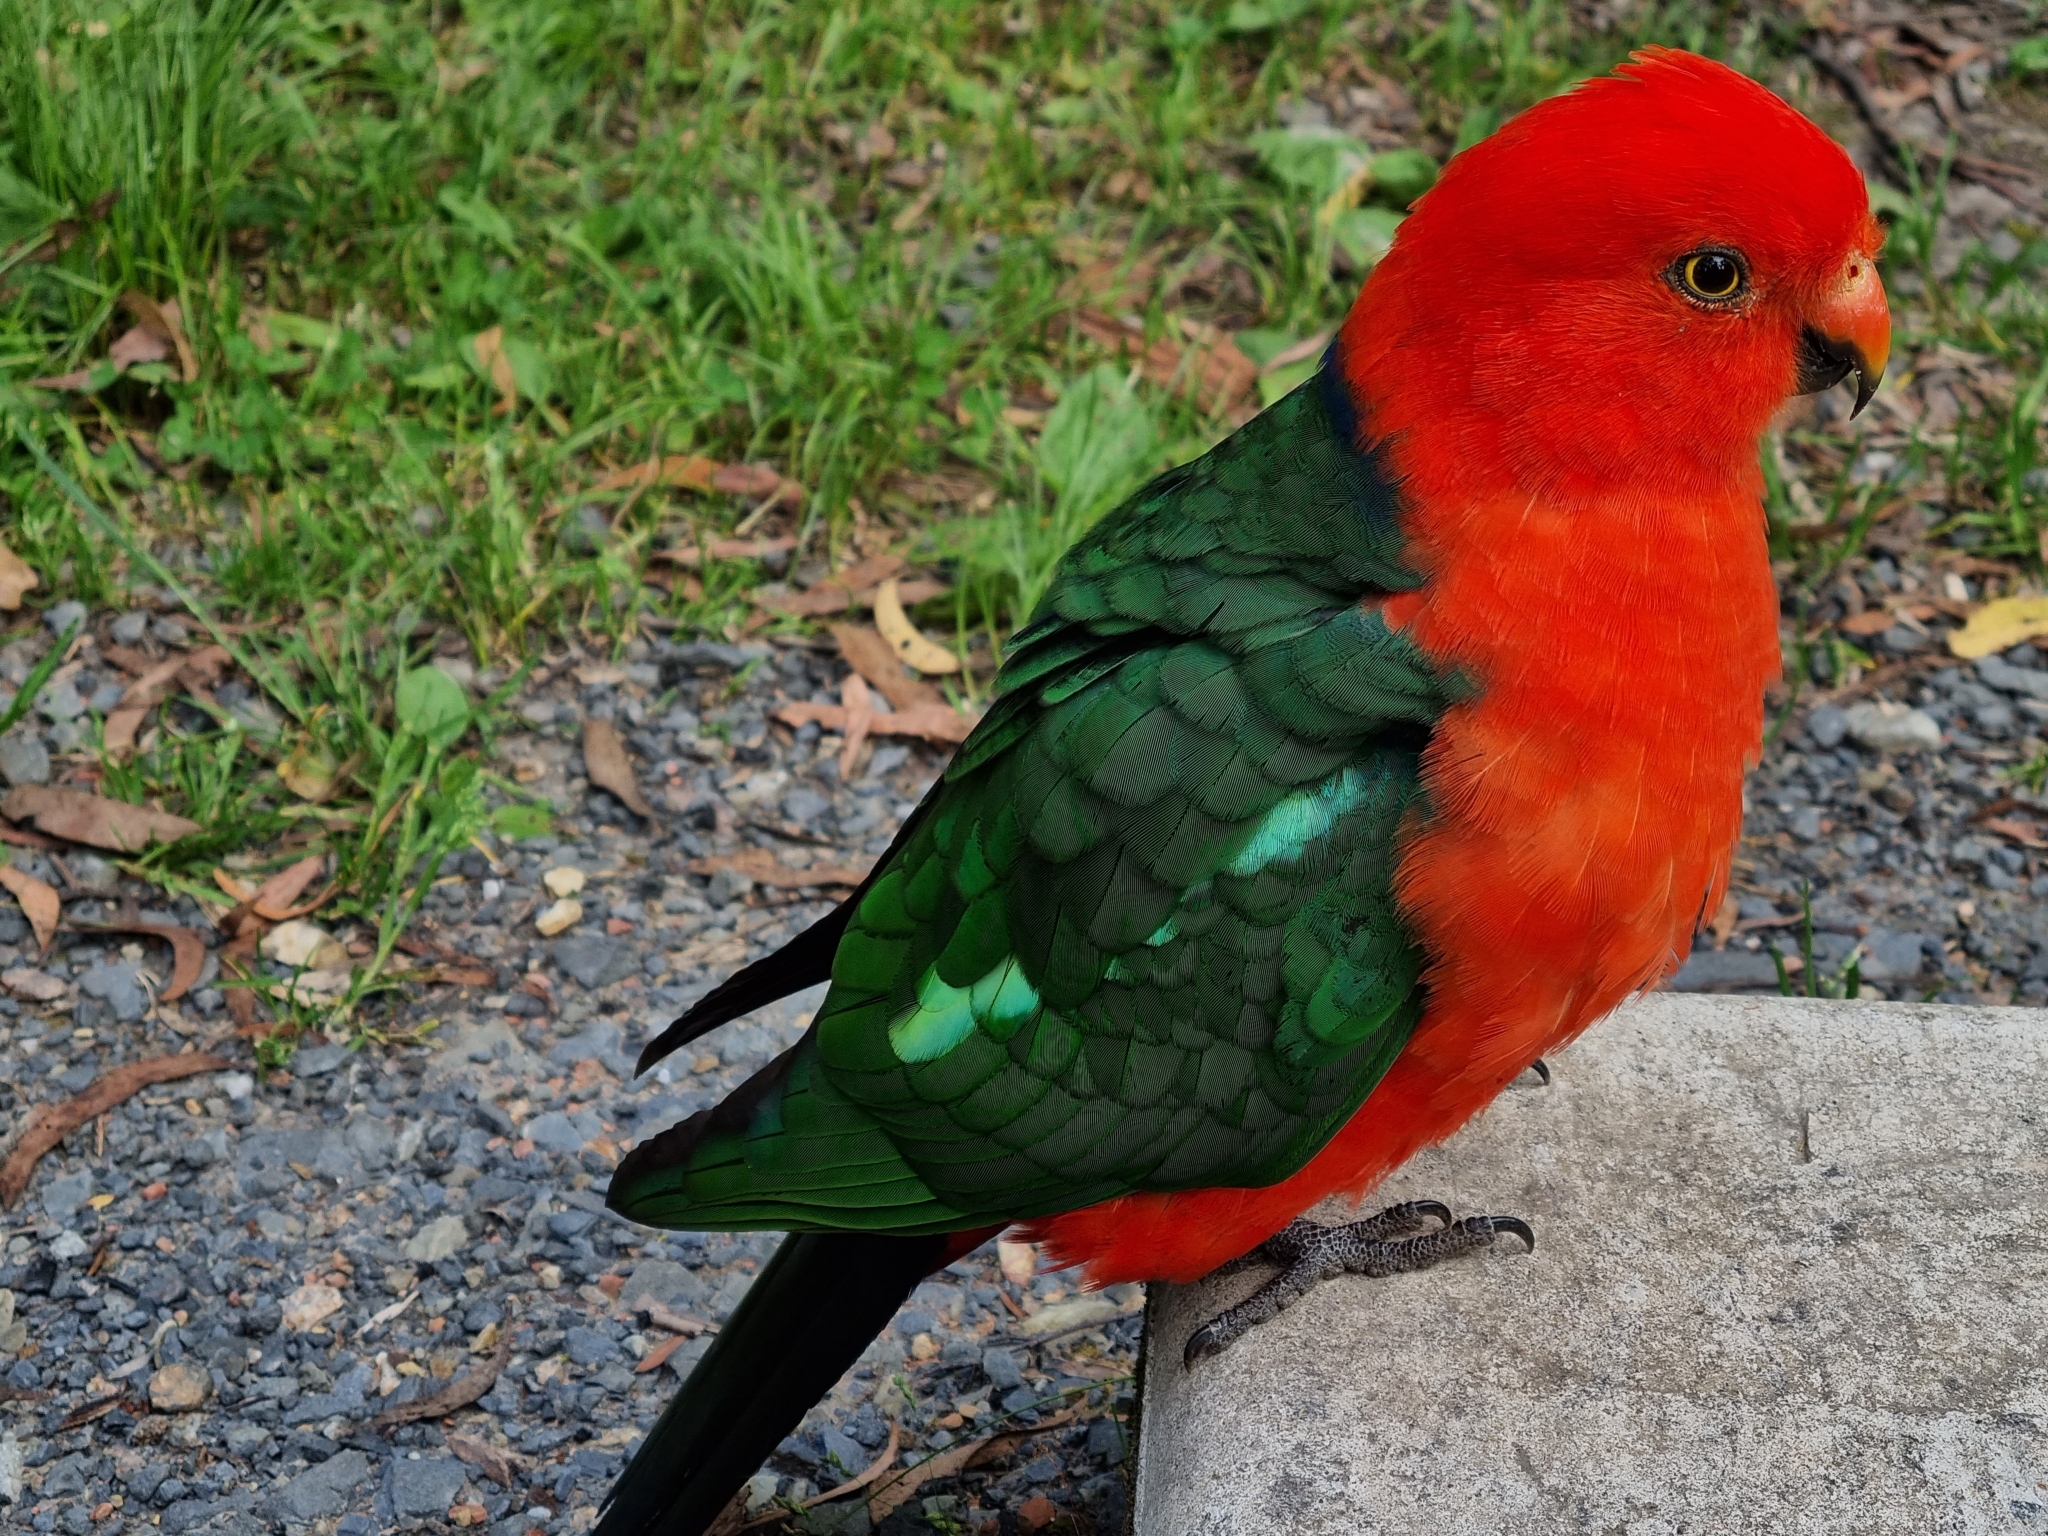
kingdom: Animalia
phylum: Chordata
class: Aves
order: Psittaciformes
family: Psittacidae
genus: Alisterus
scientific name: Alisterus scapularis
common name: Australian king parrot
